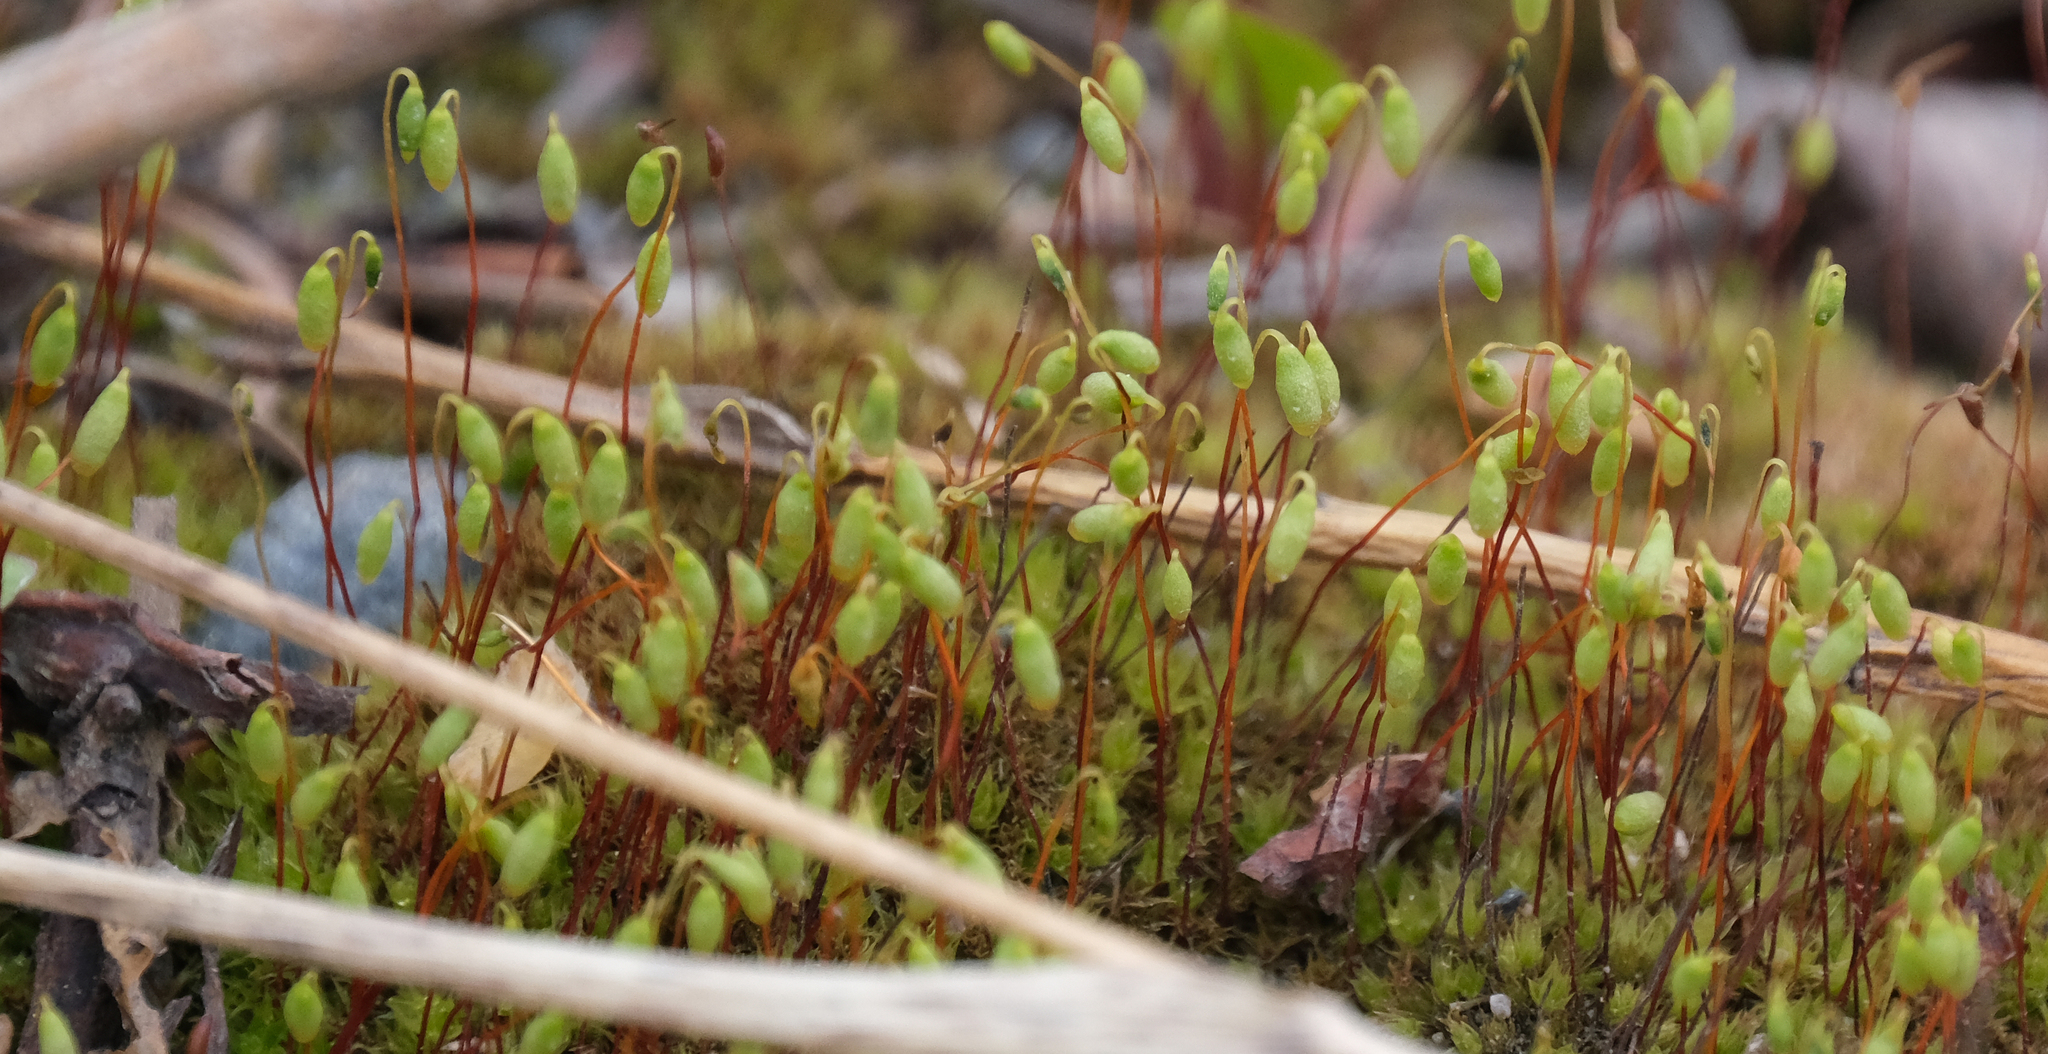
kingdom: Plantae
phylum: Bryophyta
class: Bryopsida
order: Dicranales
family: Ditrichaceae
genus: Ceratodon
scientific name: Ceratodon purpureus
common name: Redshank
